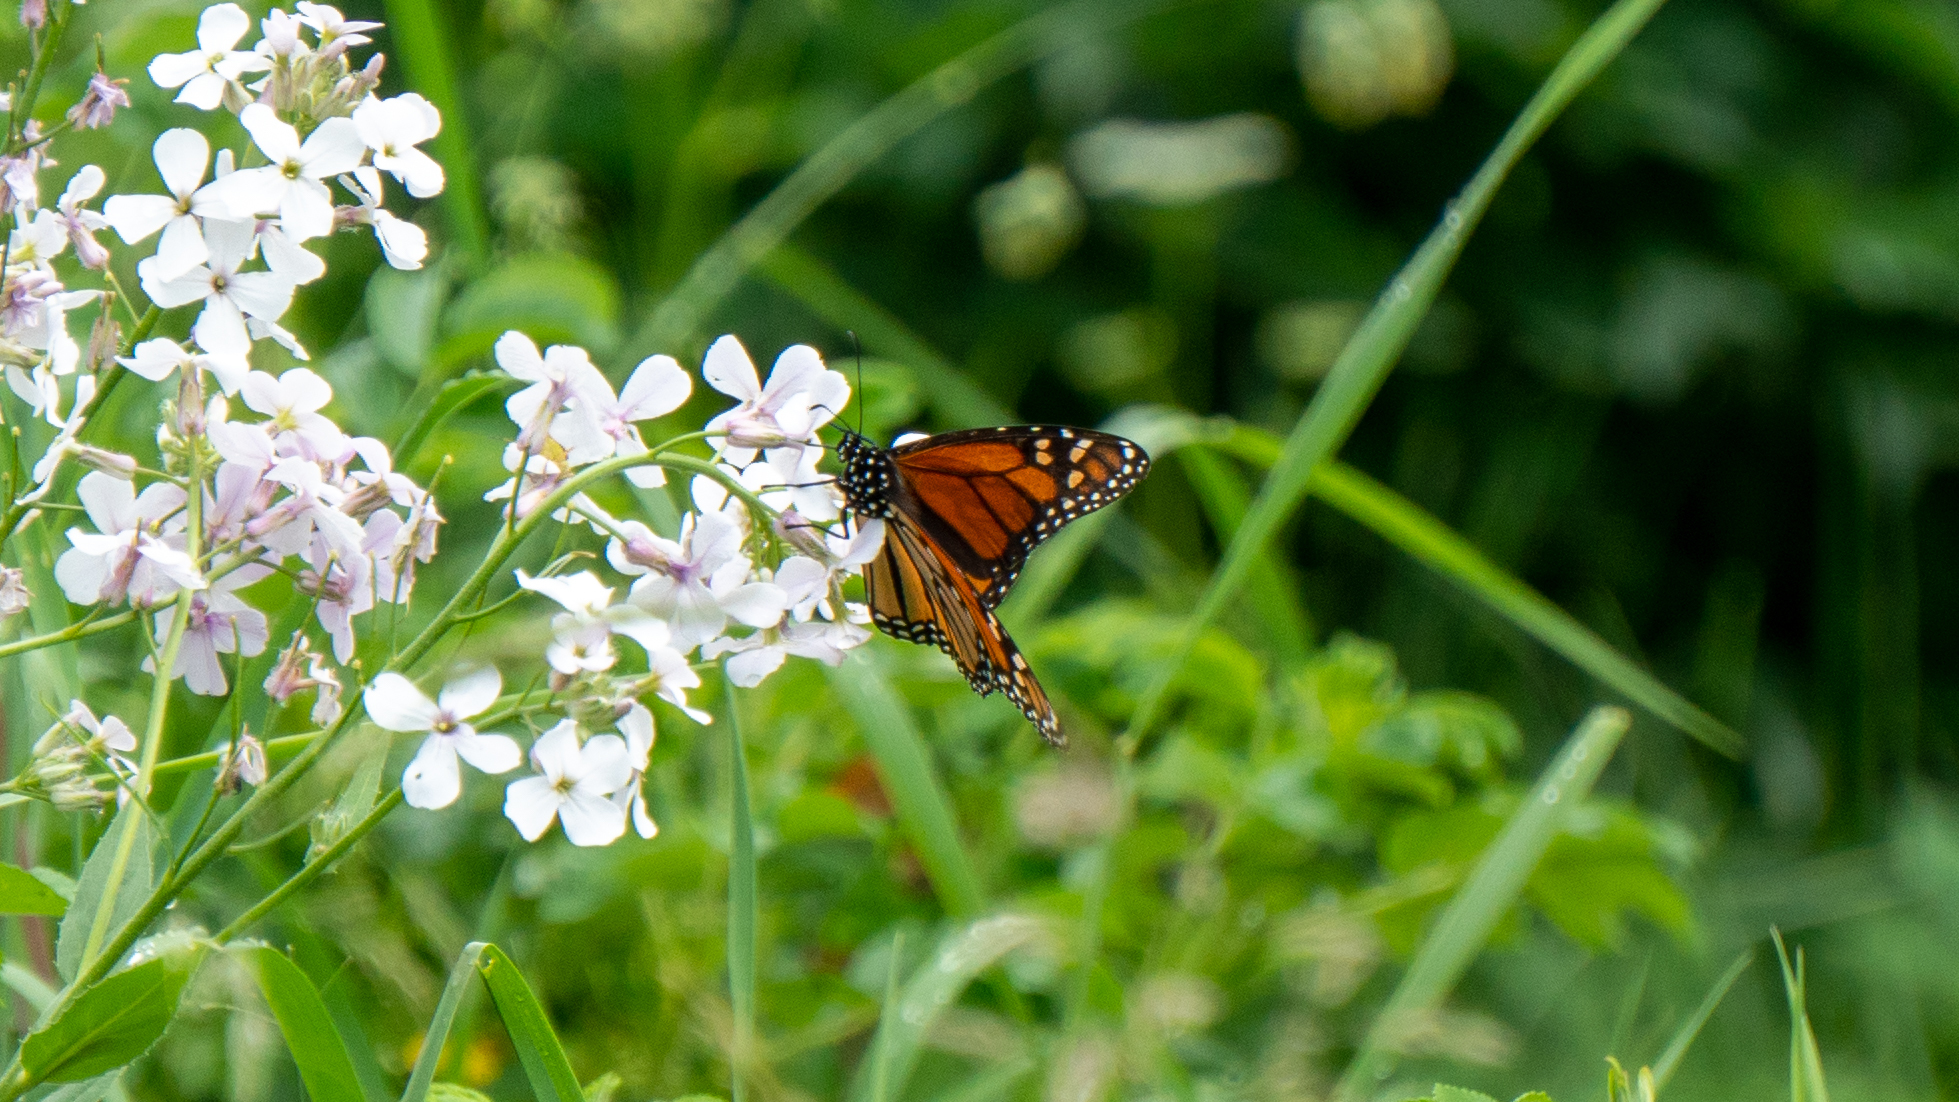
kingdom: Animalia
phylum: Arthropoda
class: Insecta
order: Lepidoptera
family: Nymphalidae
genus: Danaus
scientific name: Danaus plexippus
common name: Monarch
